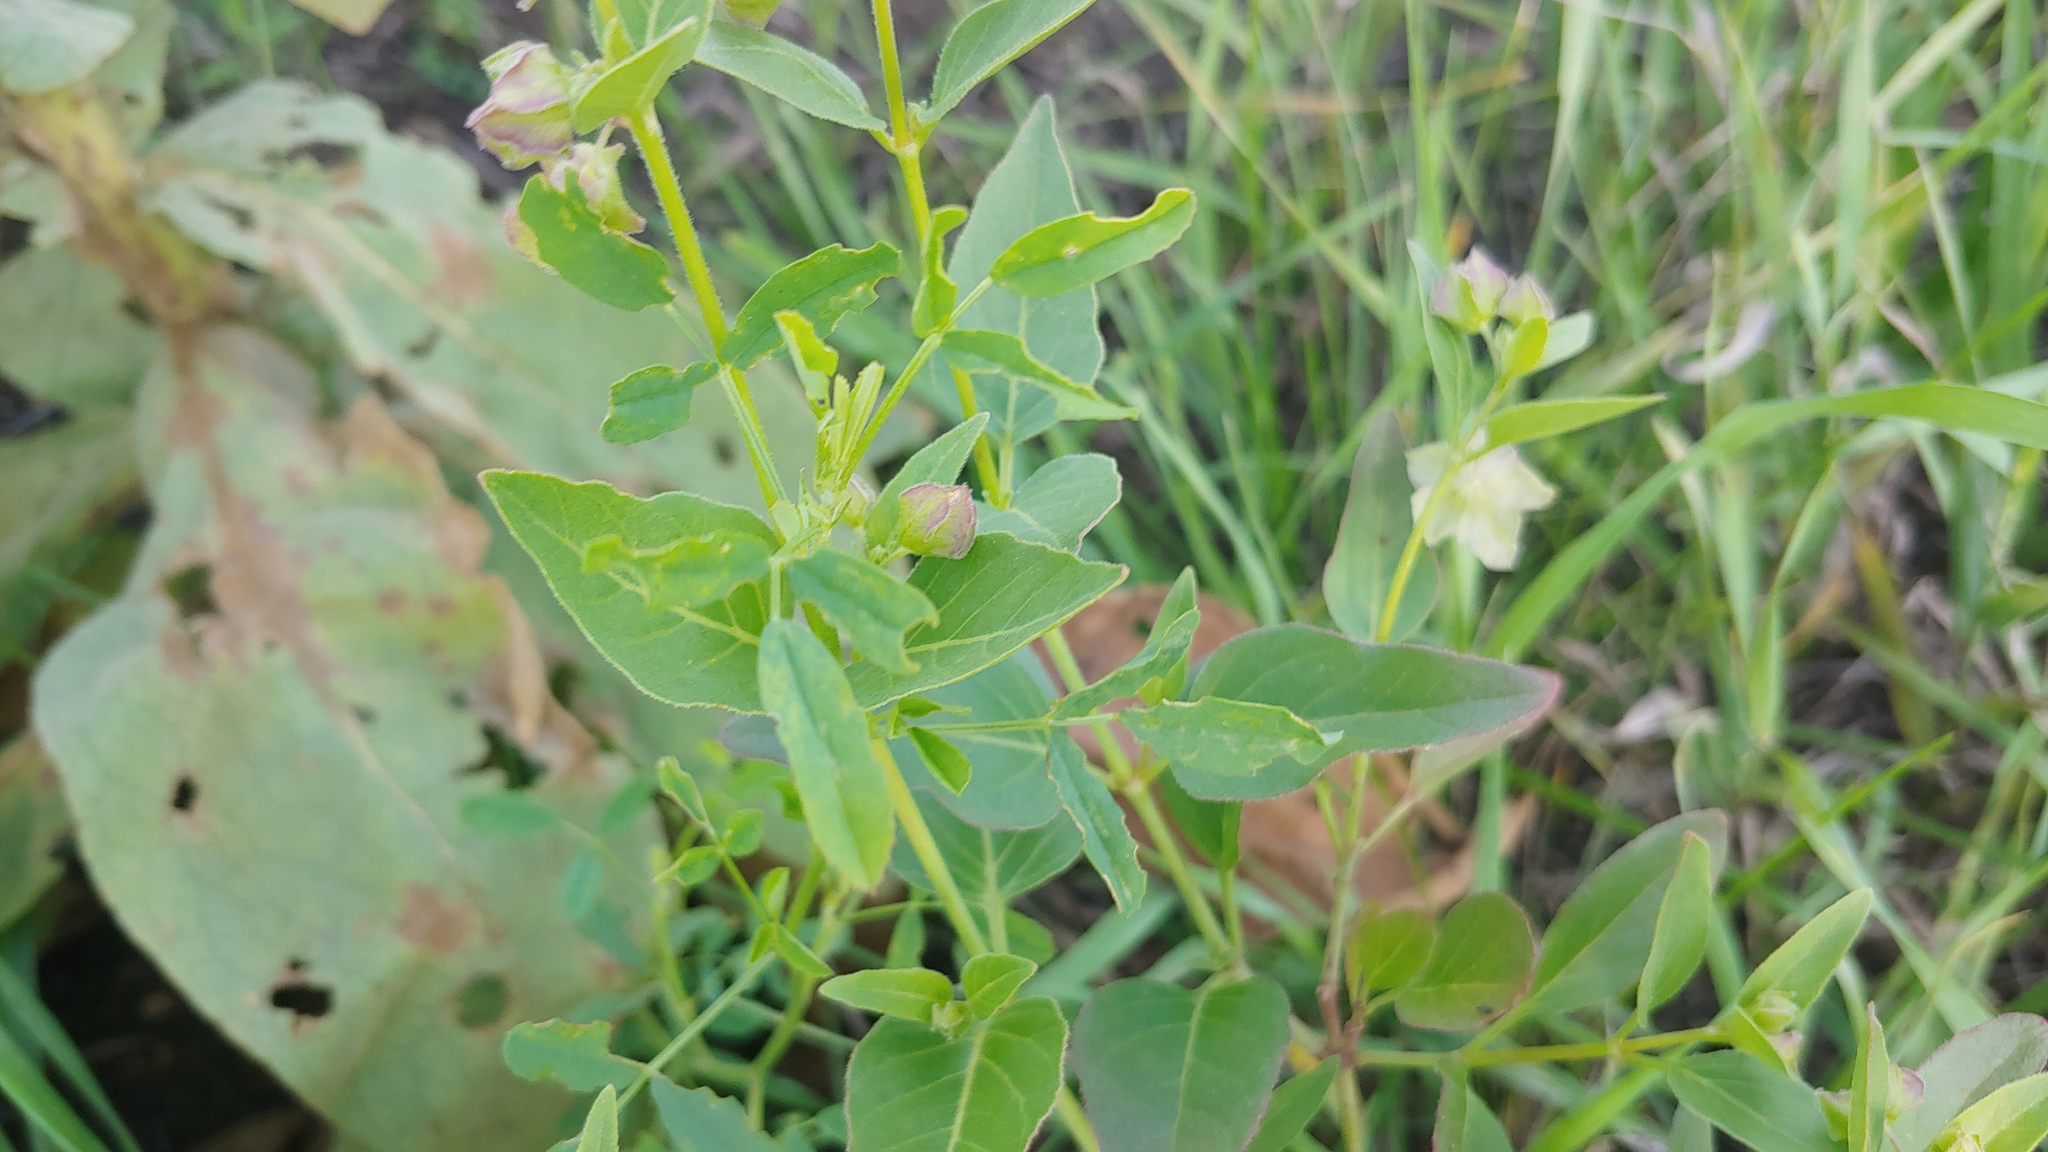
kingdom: Plantae
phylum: Tracheophyta
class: Magnoliopsida
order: Caryophyllales
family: Nyctaginaceae
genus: Mirabilis
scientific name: Mirabilis nyctaginea
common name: Umbrella wort
